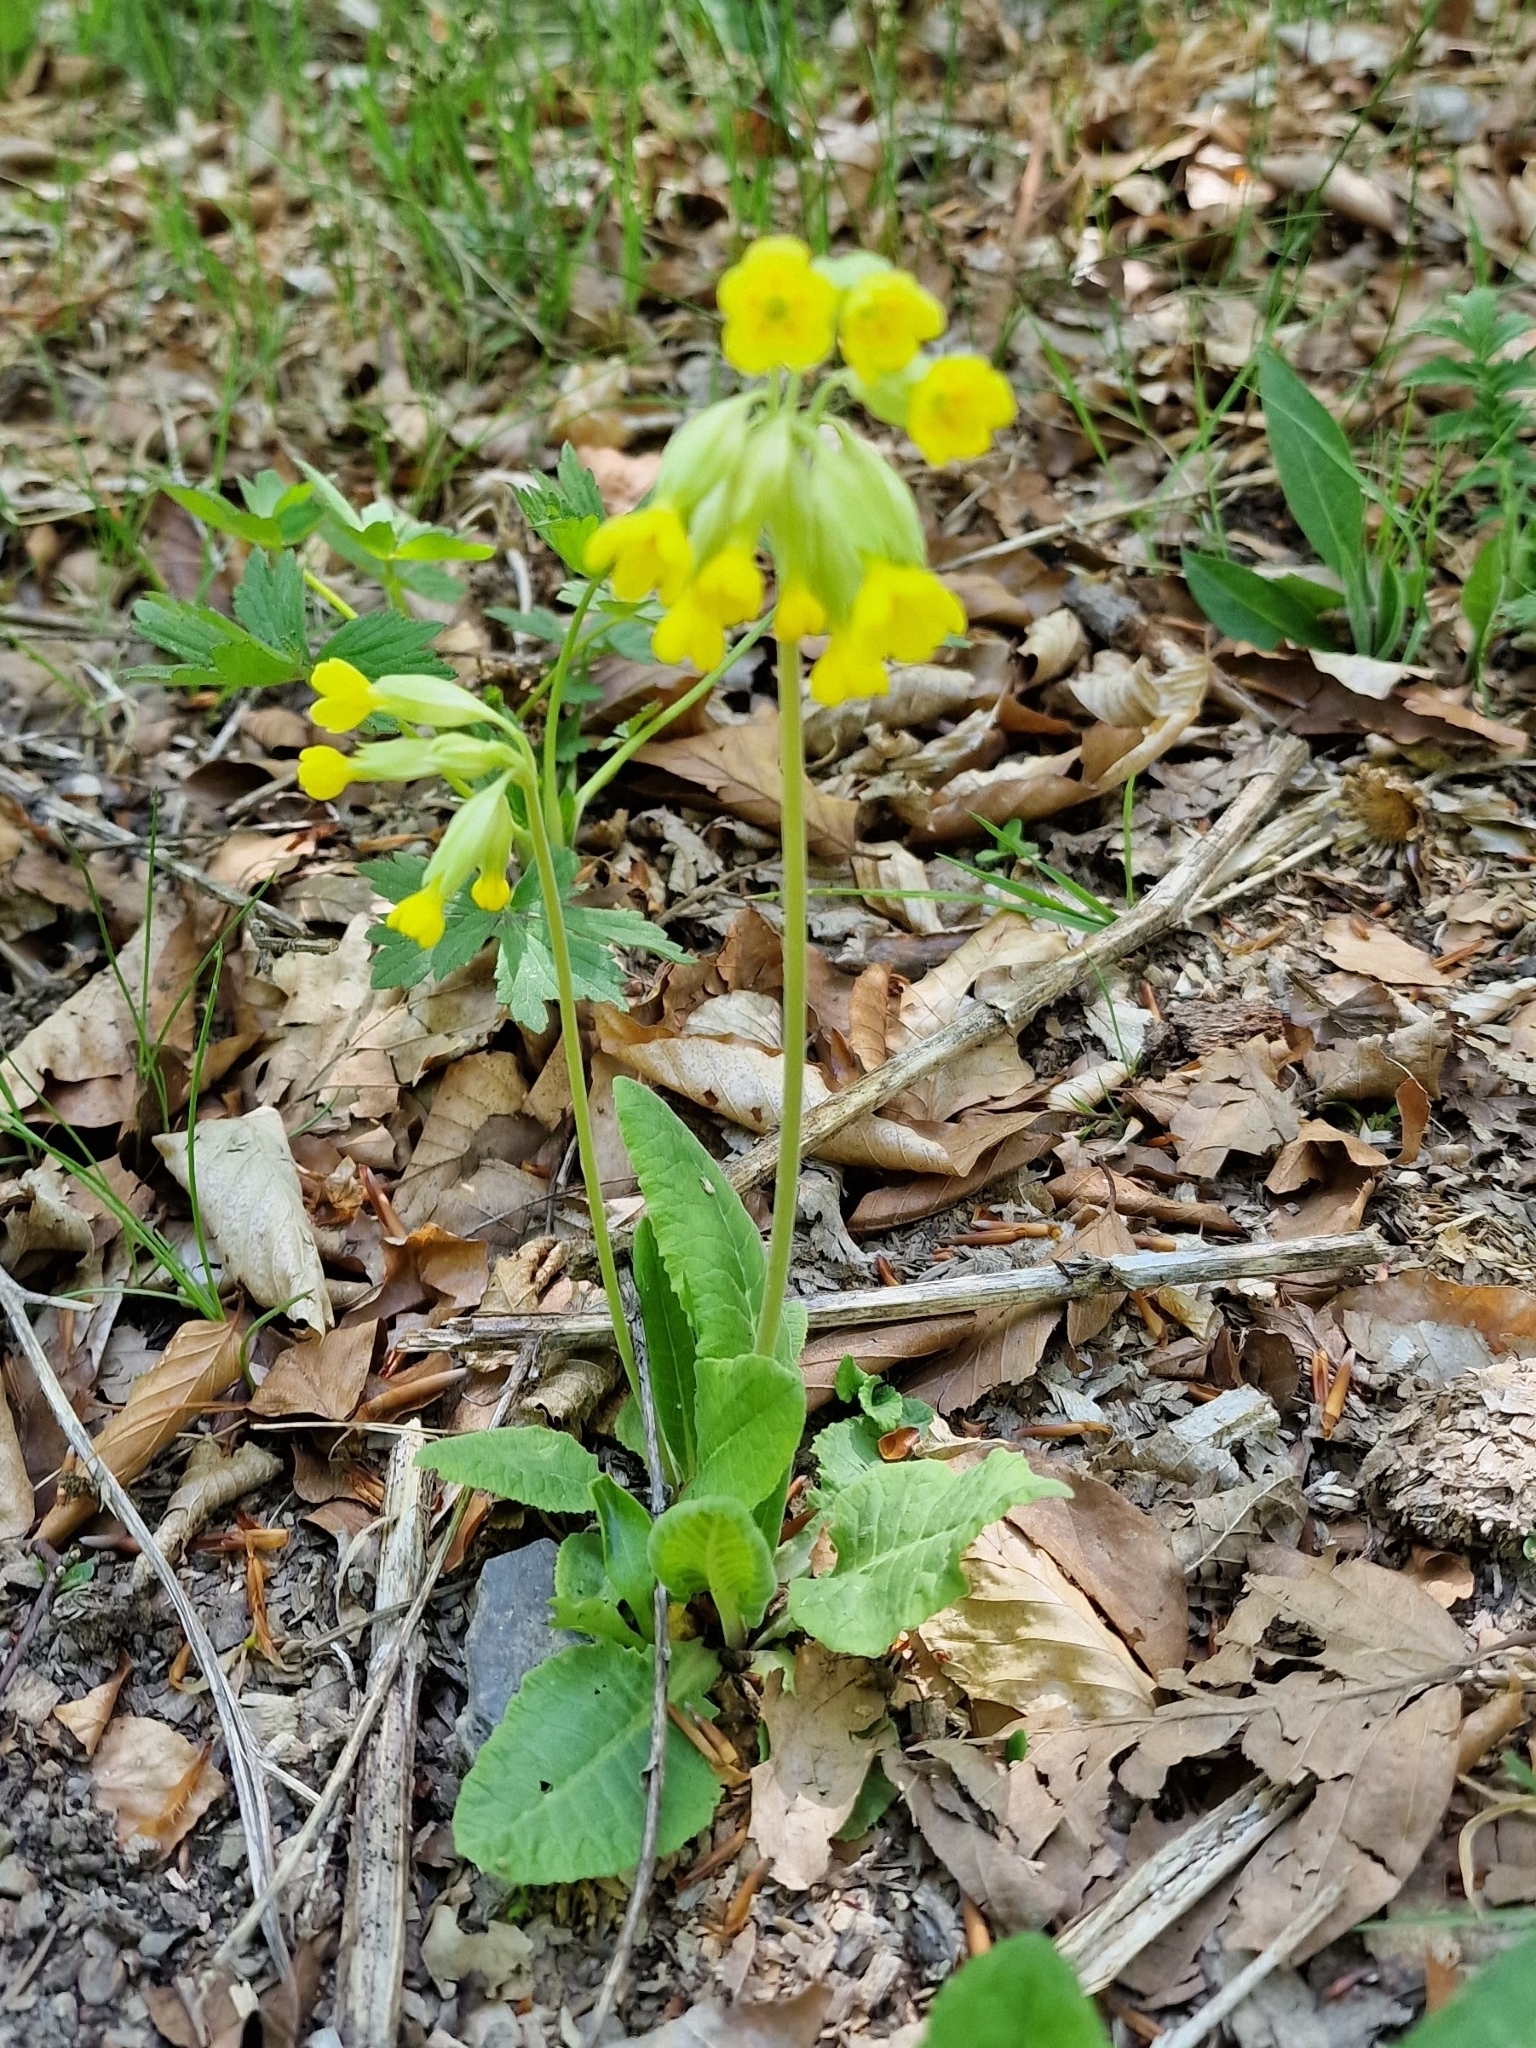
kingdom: Plantae
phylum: Tracheophyta
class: Magnoliopsida
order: Ericales
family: Primulaceae
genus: Primula
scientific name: Primula veris
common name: Cowslip
